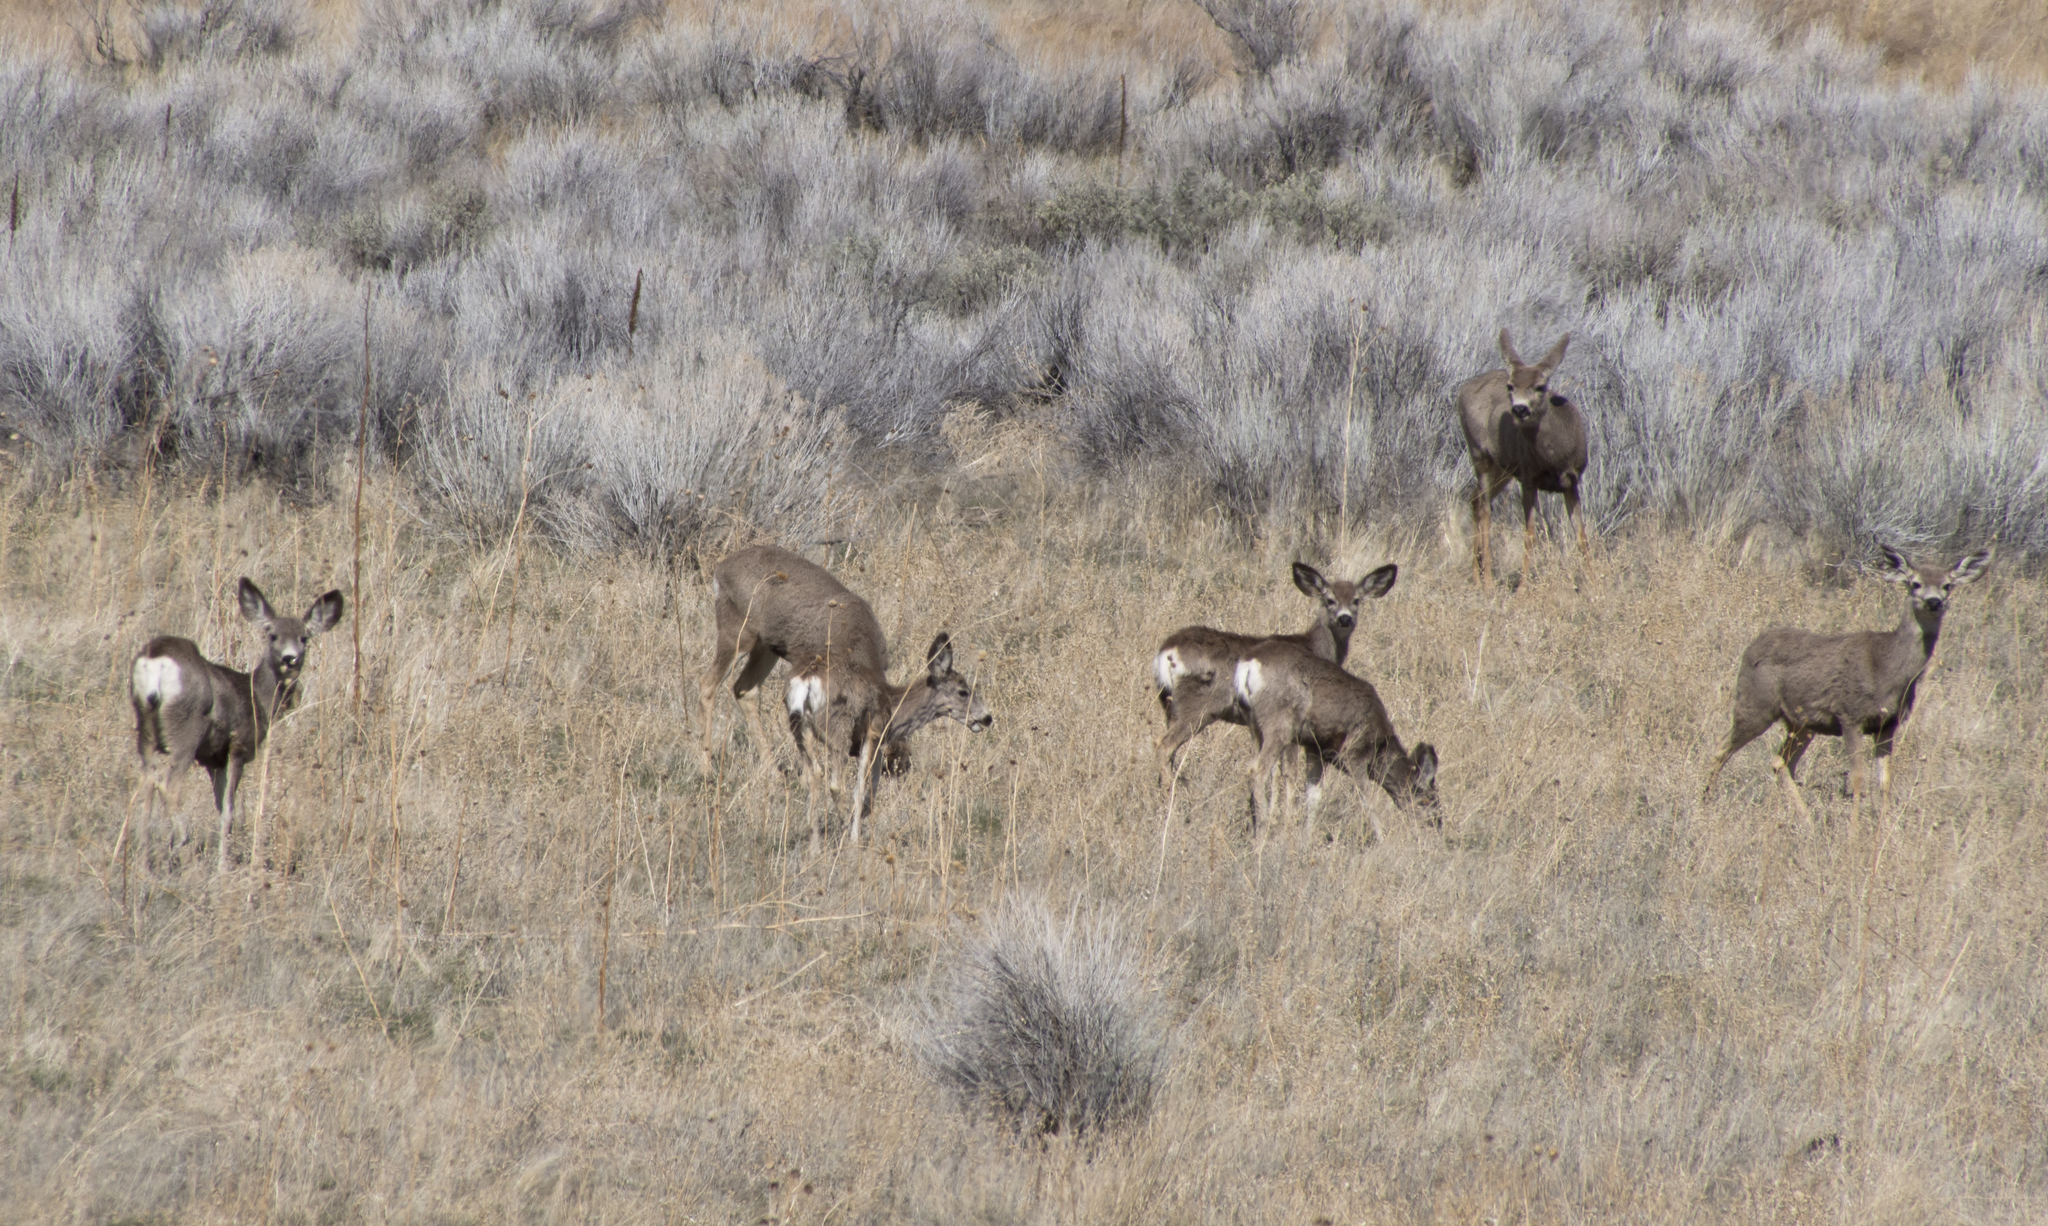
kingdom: Animalia
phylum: Chordata
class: Mammalia
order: Artiodactyla
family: Cervidae
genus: Odocoileus
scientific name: Odocoileus hemionus
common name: Mule deer
